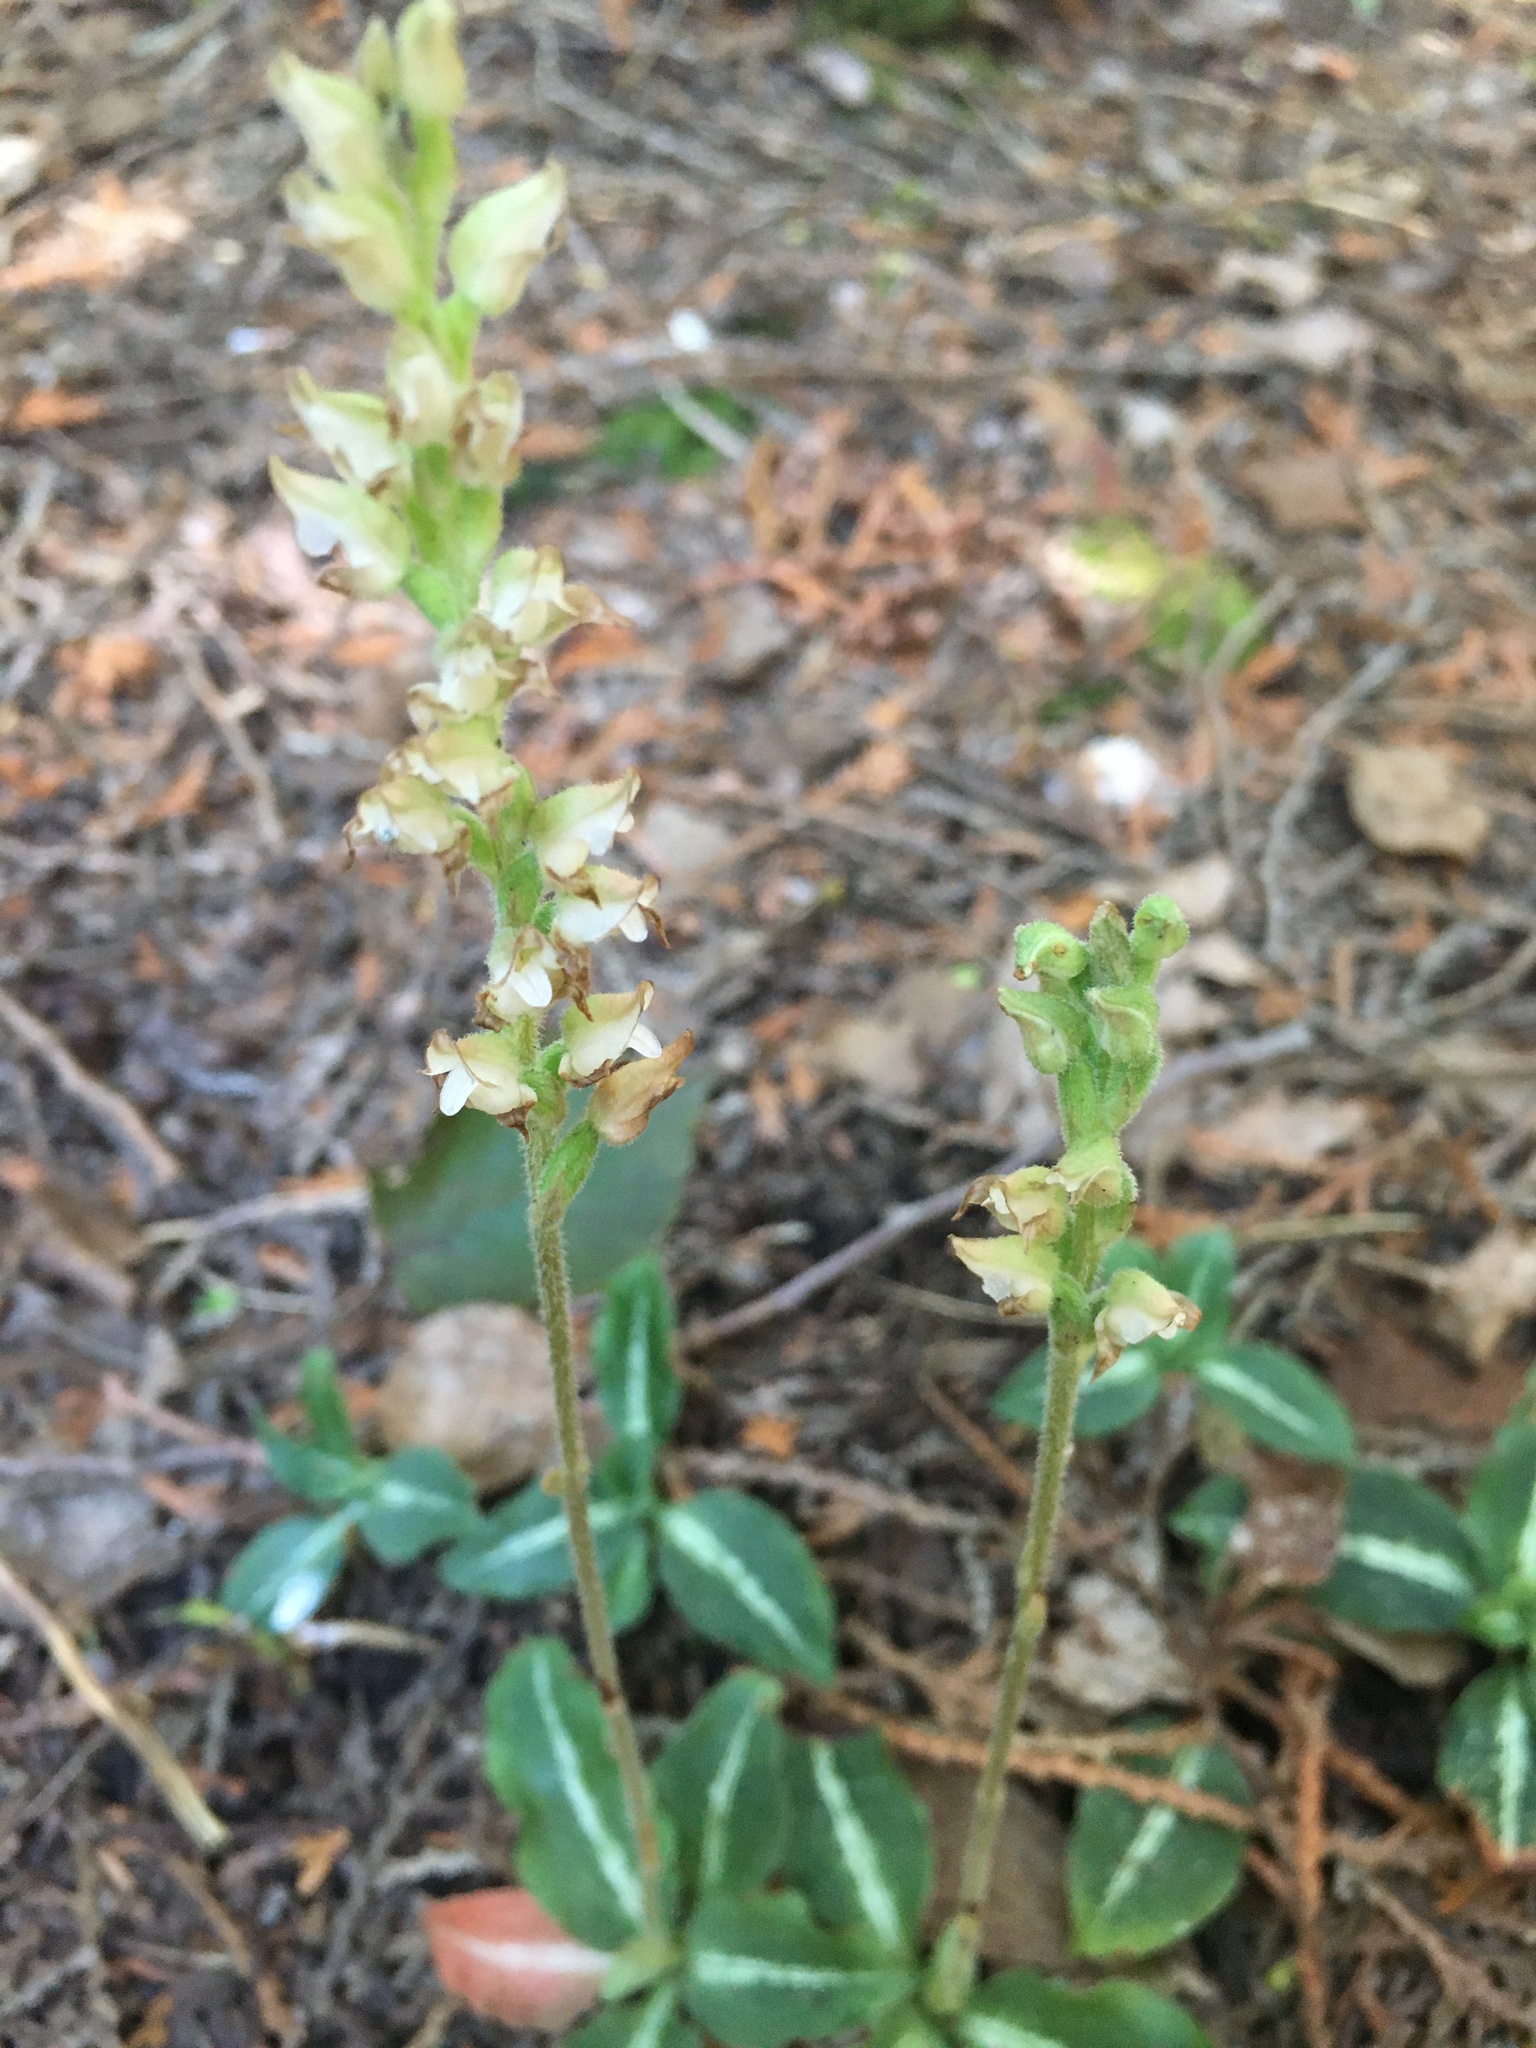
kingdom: Plantae
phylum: Tracheophyta
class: Liliopsida
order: Asparagales
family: Orchidaceae
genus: Goodyera
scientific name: Goodyera oblongifolia
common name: Giant rattlesnake-plantain
